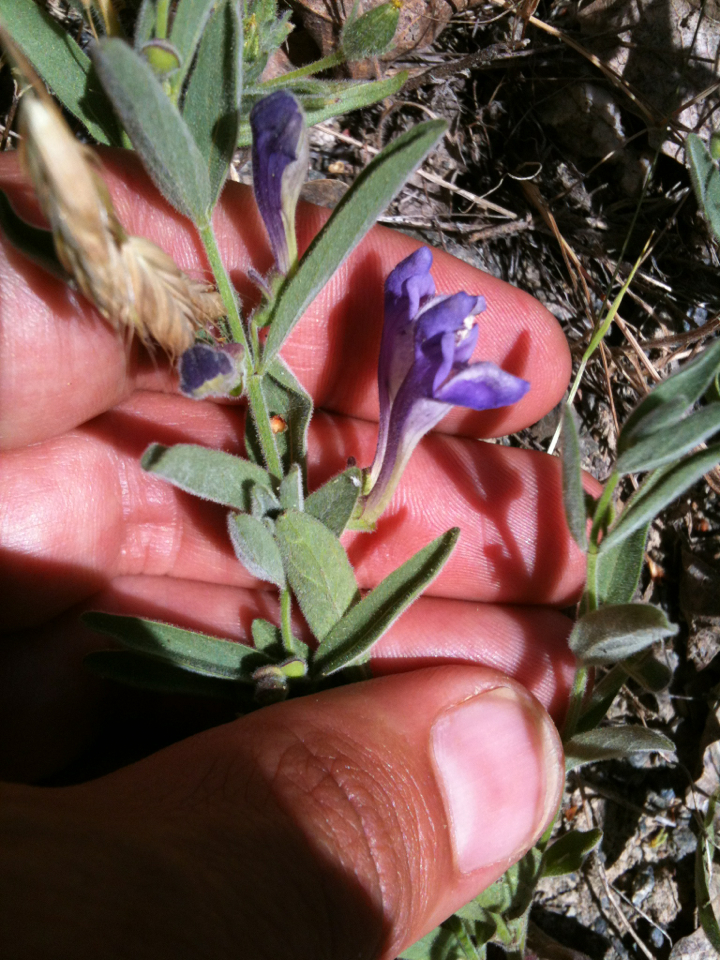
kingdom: Plantae
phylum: Tracheophyta
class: Magnoliopsida
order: Lamiales
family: Lamiaceae
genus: Scutellaria
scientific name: Scutellaria siphocampyloides
